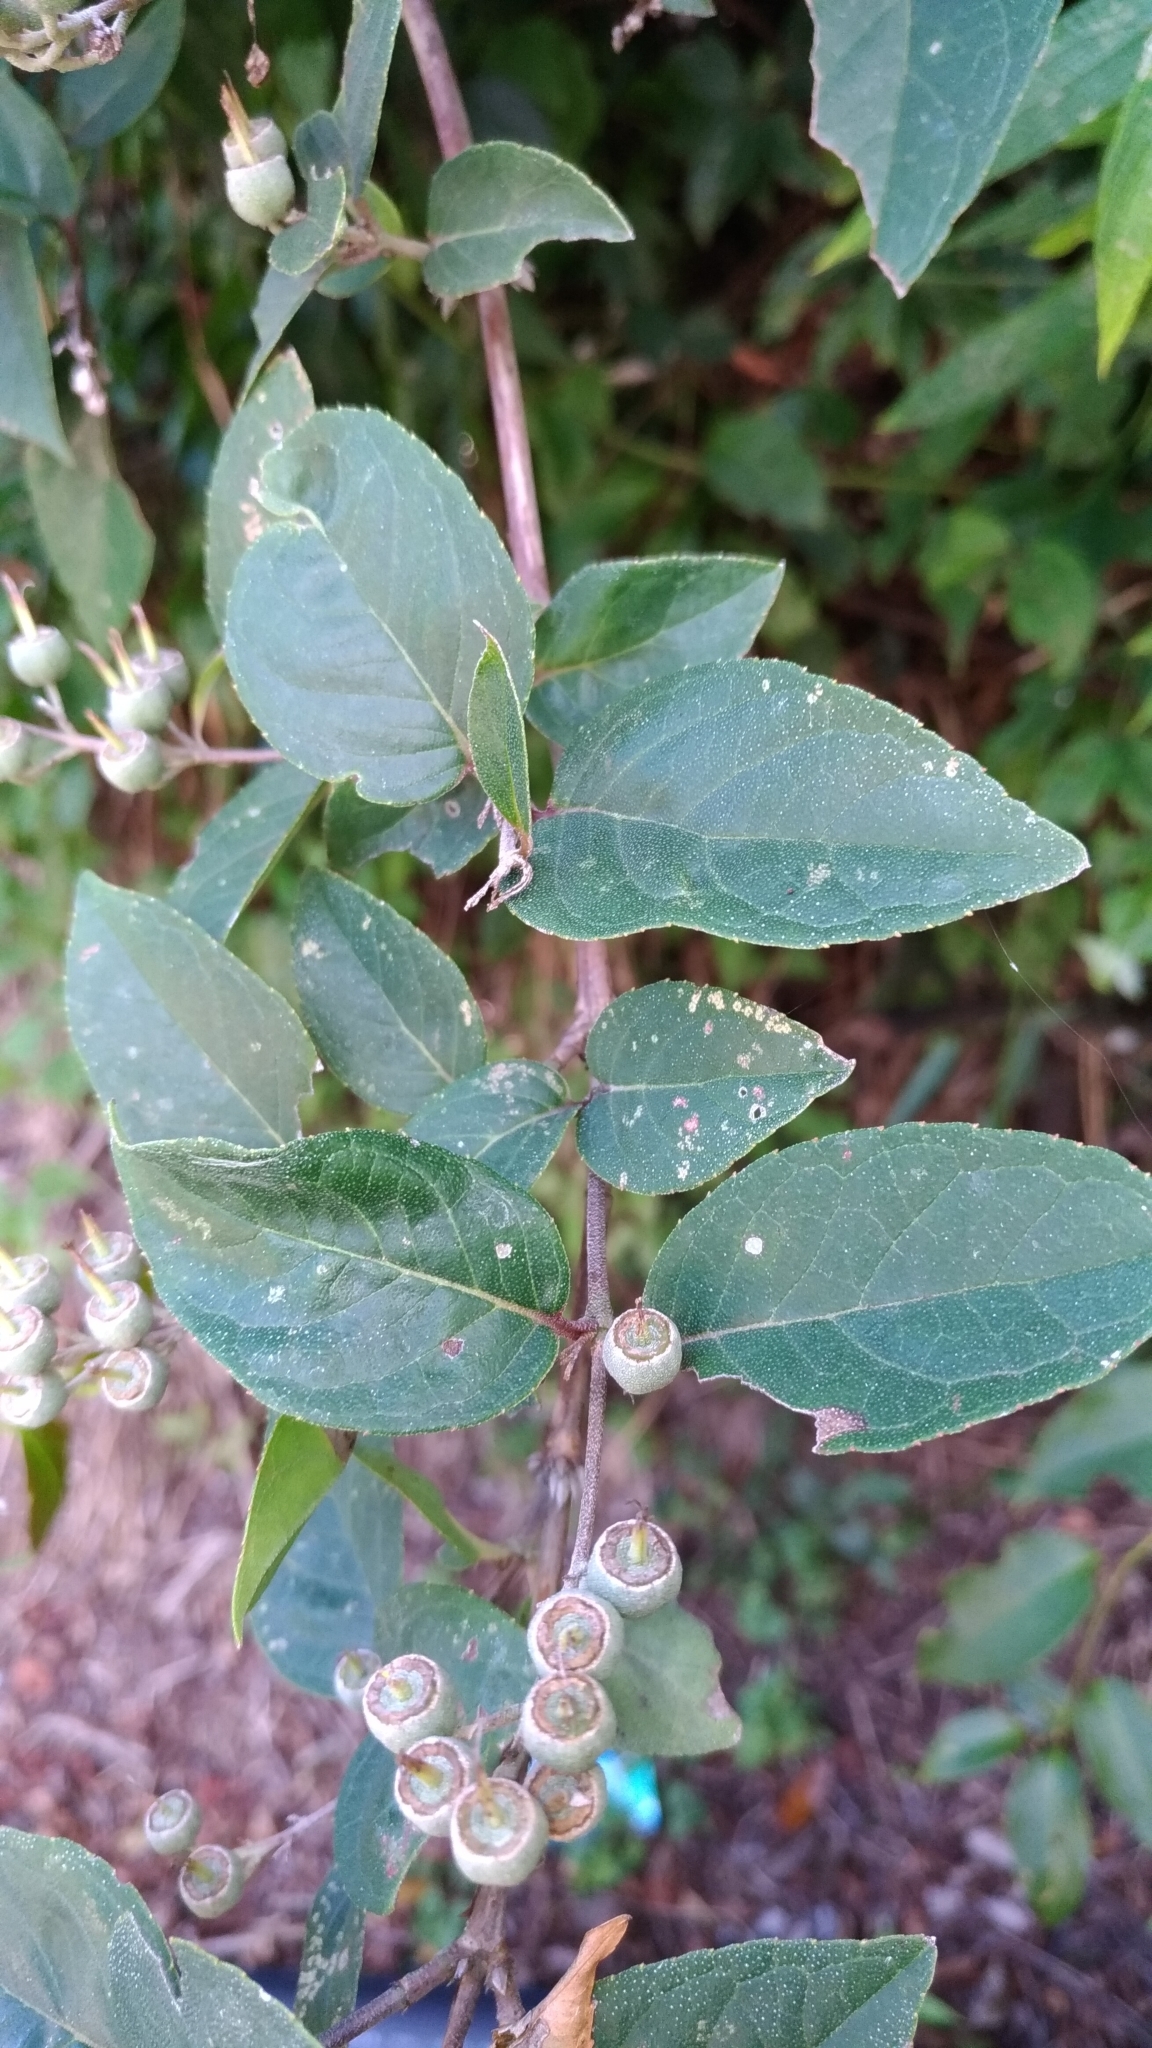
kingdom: Plantae
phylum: Tracheophyta
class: Magnoliopsida
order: Cornales
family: Hydrangeaceae
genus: Deutzia
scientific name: Deutzia pulchra
